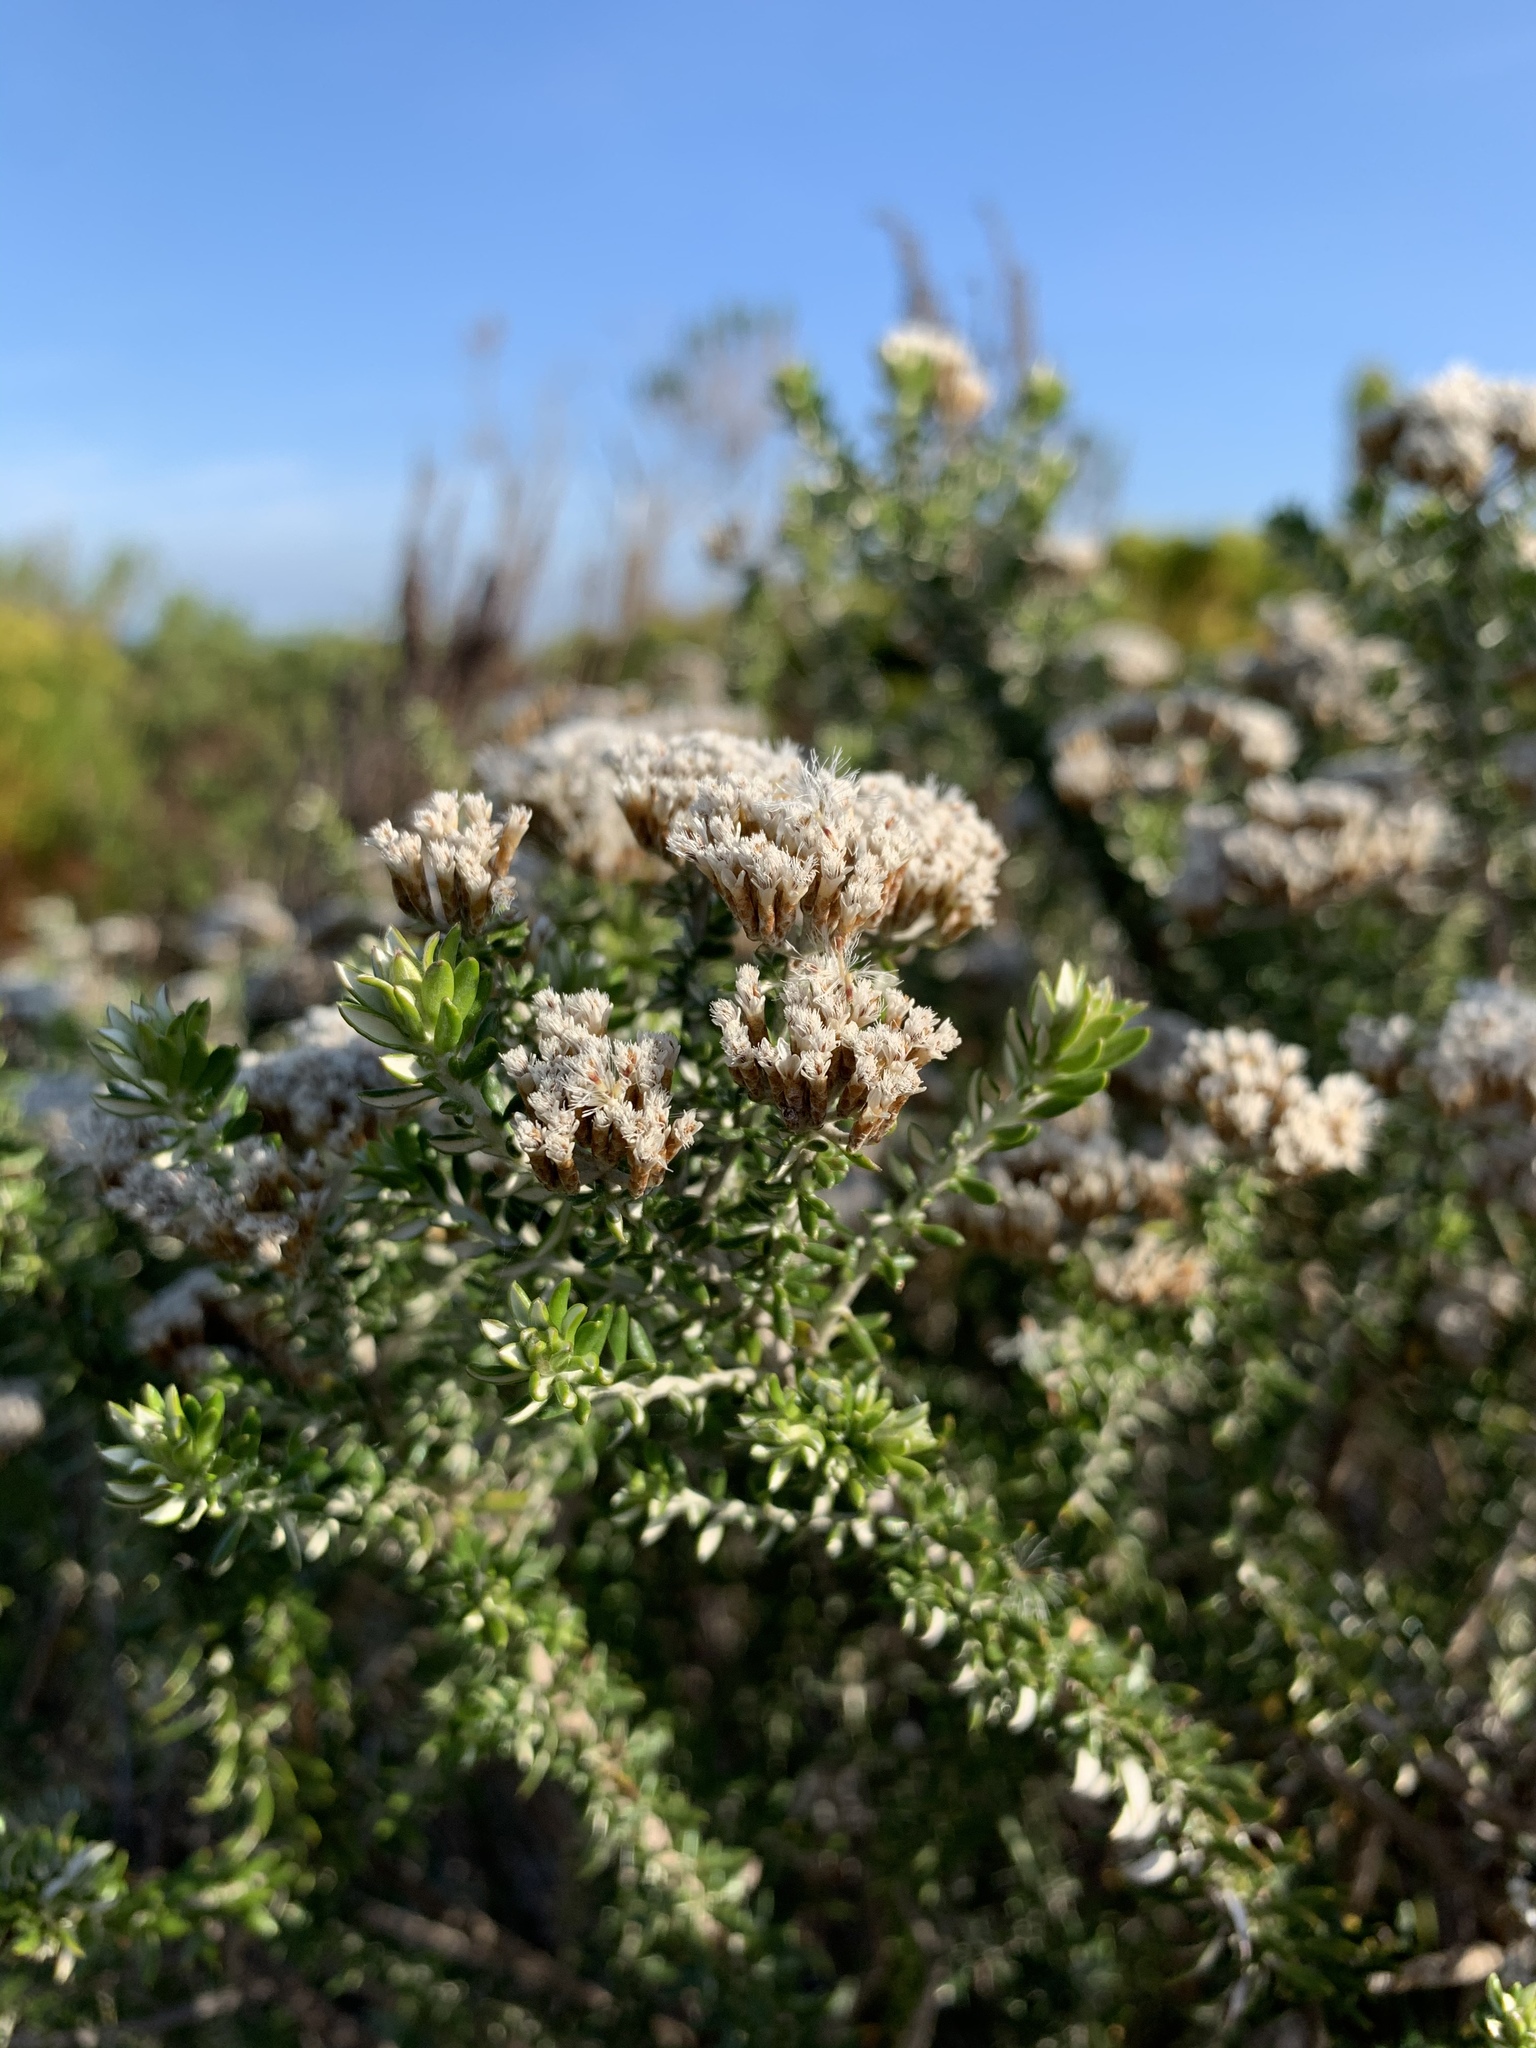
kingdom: Plantae
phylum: Tracheophyta
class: Magnoliopsida
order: Asterales
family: Asteraceae
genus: Metalasia
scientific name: Metalasia muricata
